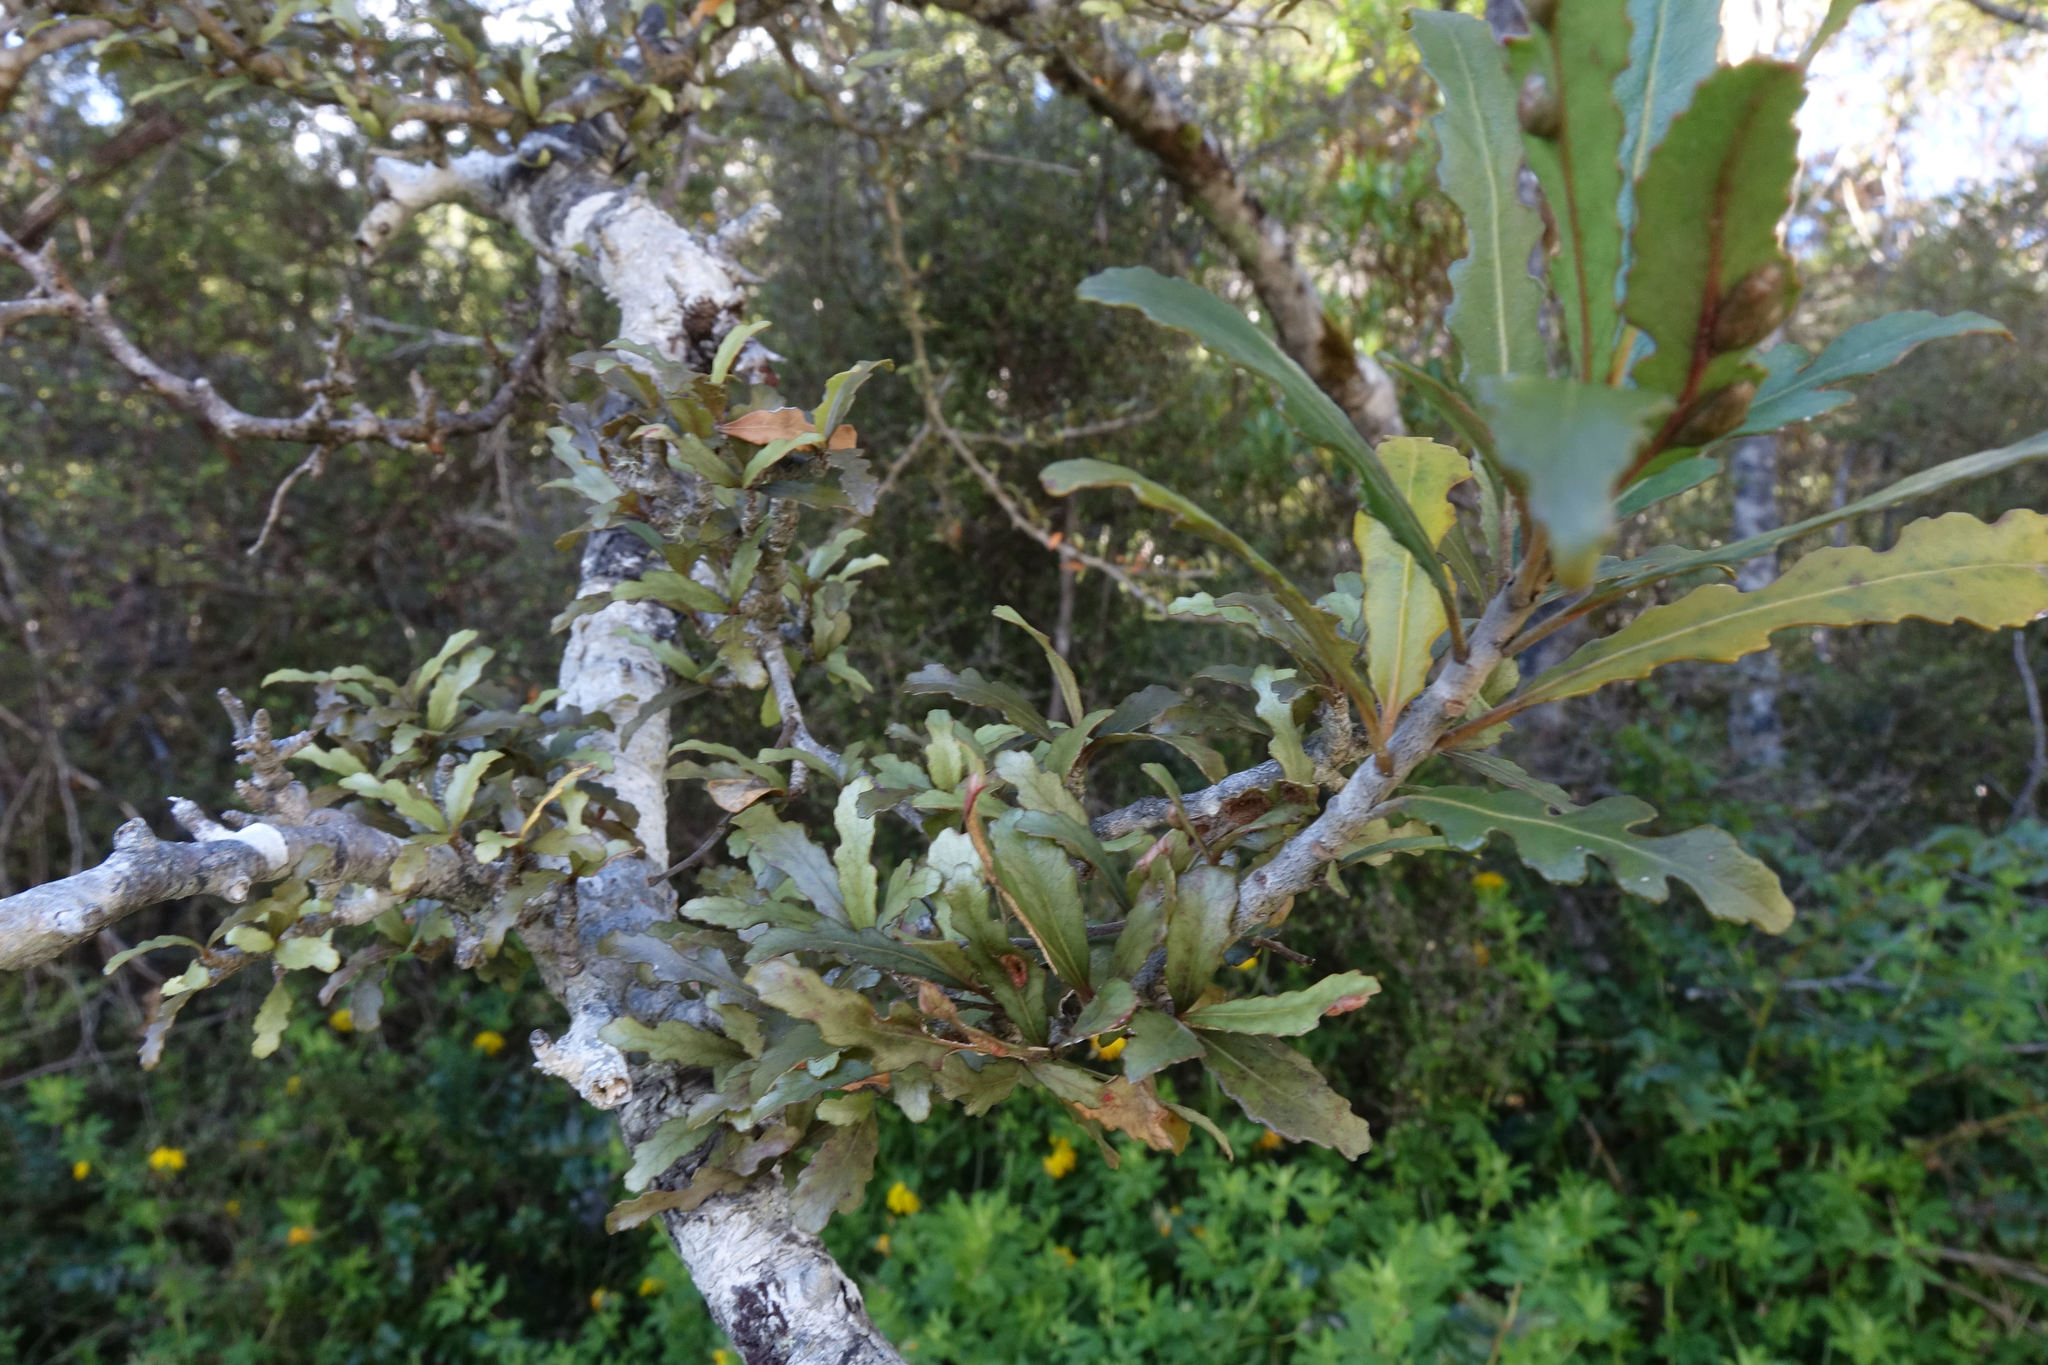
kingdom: Plantae
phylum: Tracheophyta
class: Magnoliopsida
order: Oxalidales
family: Elaeocarpaceae
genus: Elaeocarpus
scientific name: Elaeocarpus hookerianus
